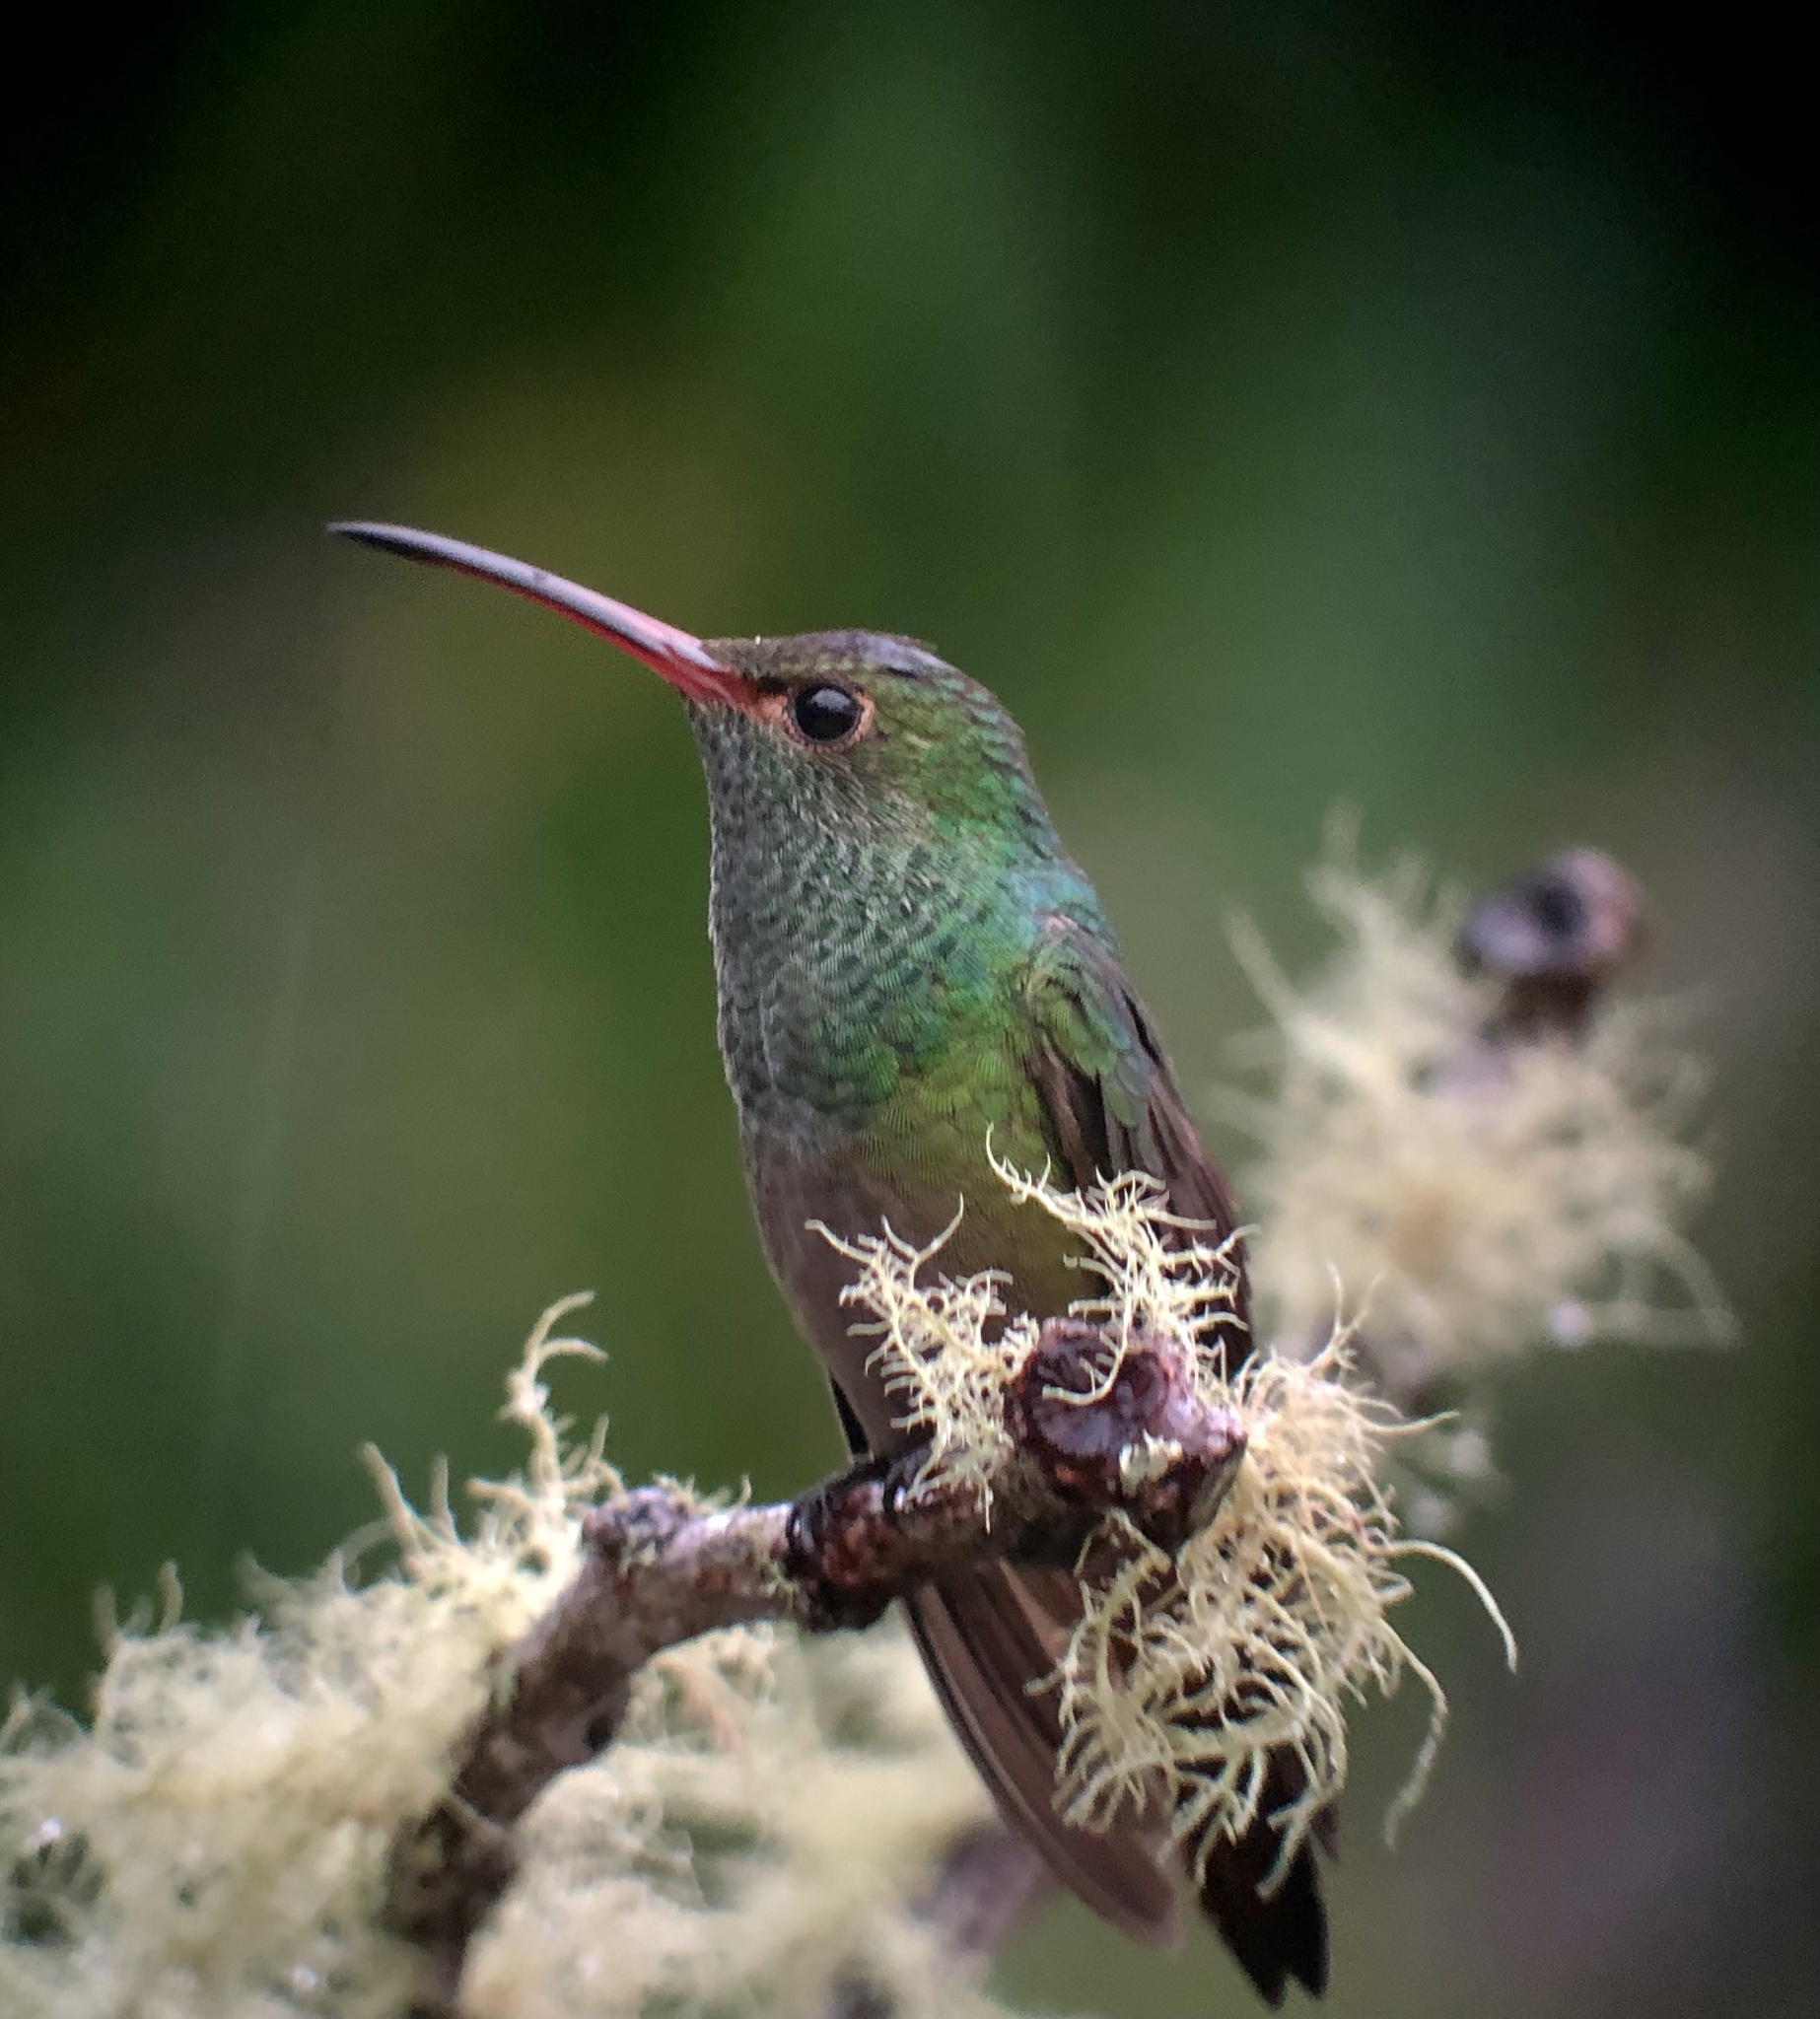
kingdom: Animalia
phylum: Chordata
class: Aves
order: Apodiformes
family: Trochilidae
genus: Amazilia
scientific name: Amazilia tzacatl
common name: Rufous-tailed hummingbird
